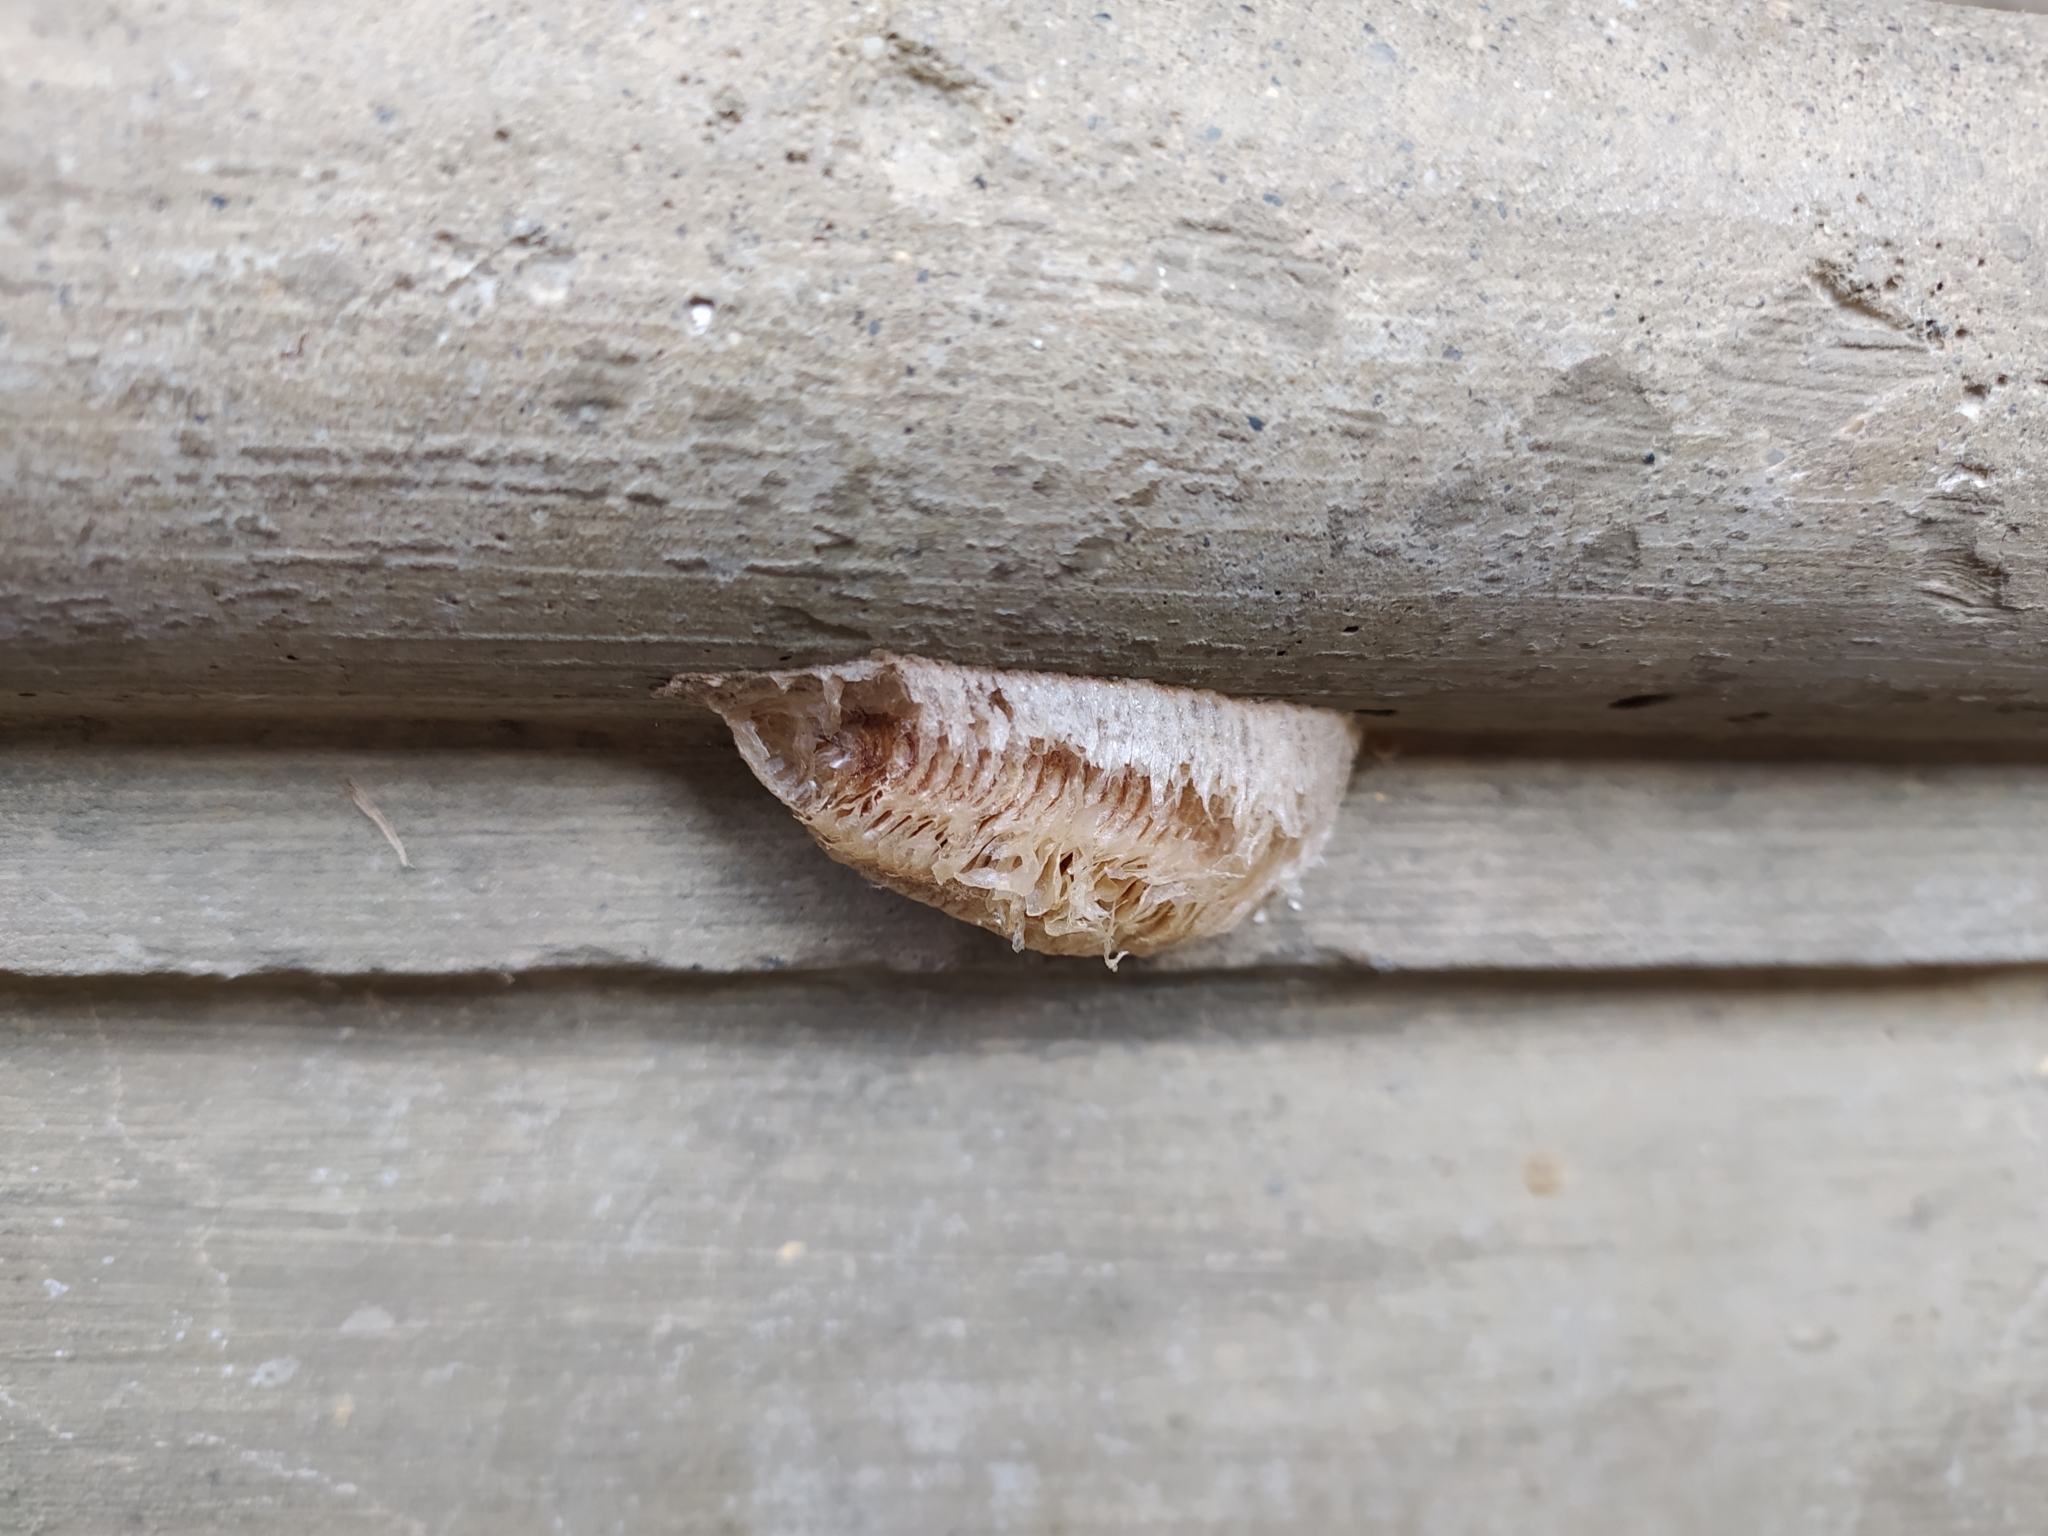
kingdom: Animalia
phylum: Arthropoda
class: Insecta
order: Mantodea
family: Mantidae
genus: Mantis
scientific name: Mantis religiosa
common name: Praying mantis
